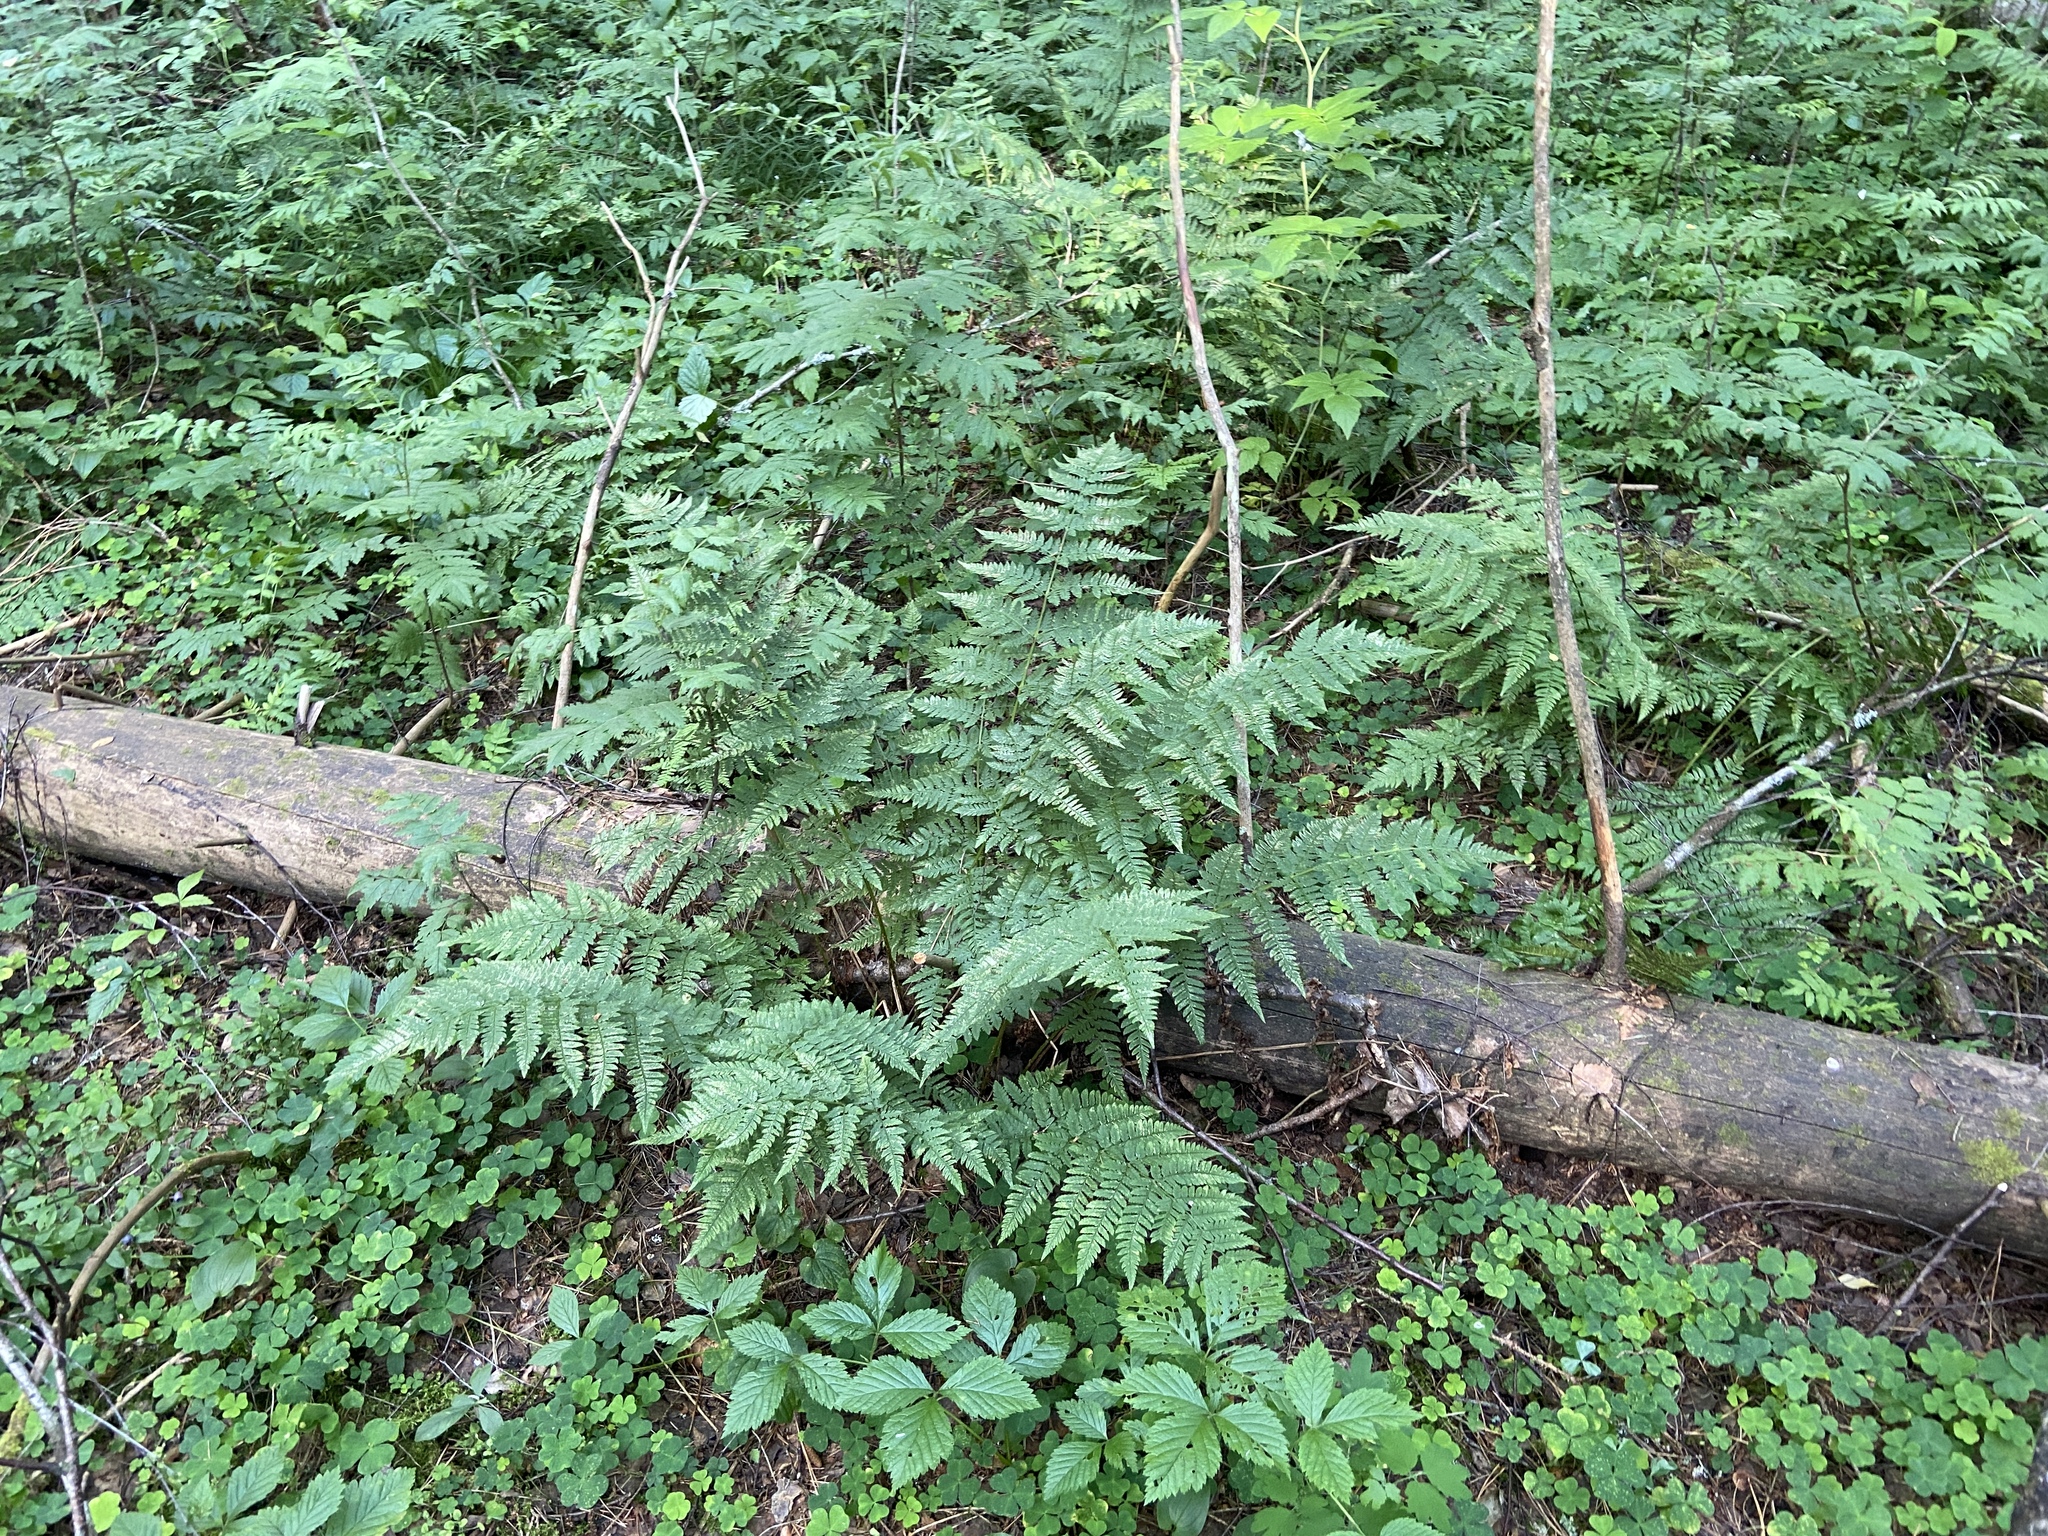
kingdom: Plantae
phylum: Tracheophyta
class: Polypodiopsida
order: Polypodiales
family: Dryopteridaceae
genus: Dryopteris
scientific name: Dryopteris carthusiana
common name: Narrow buckler-fern
